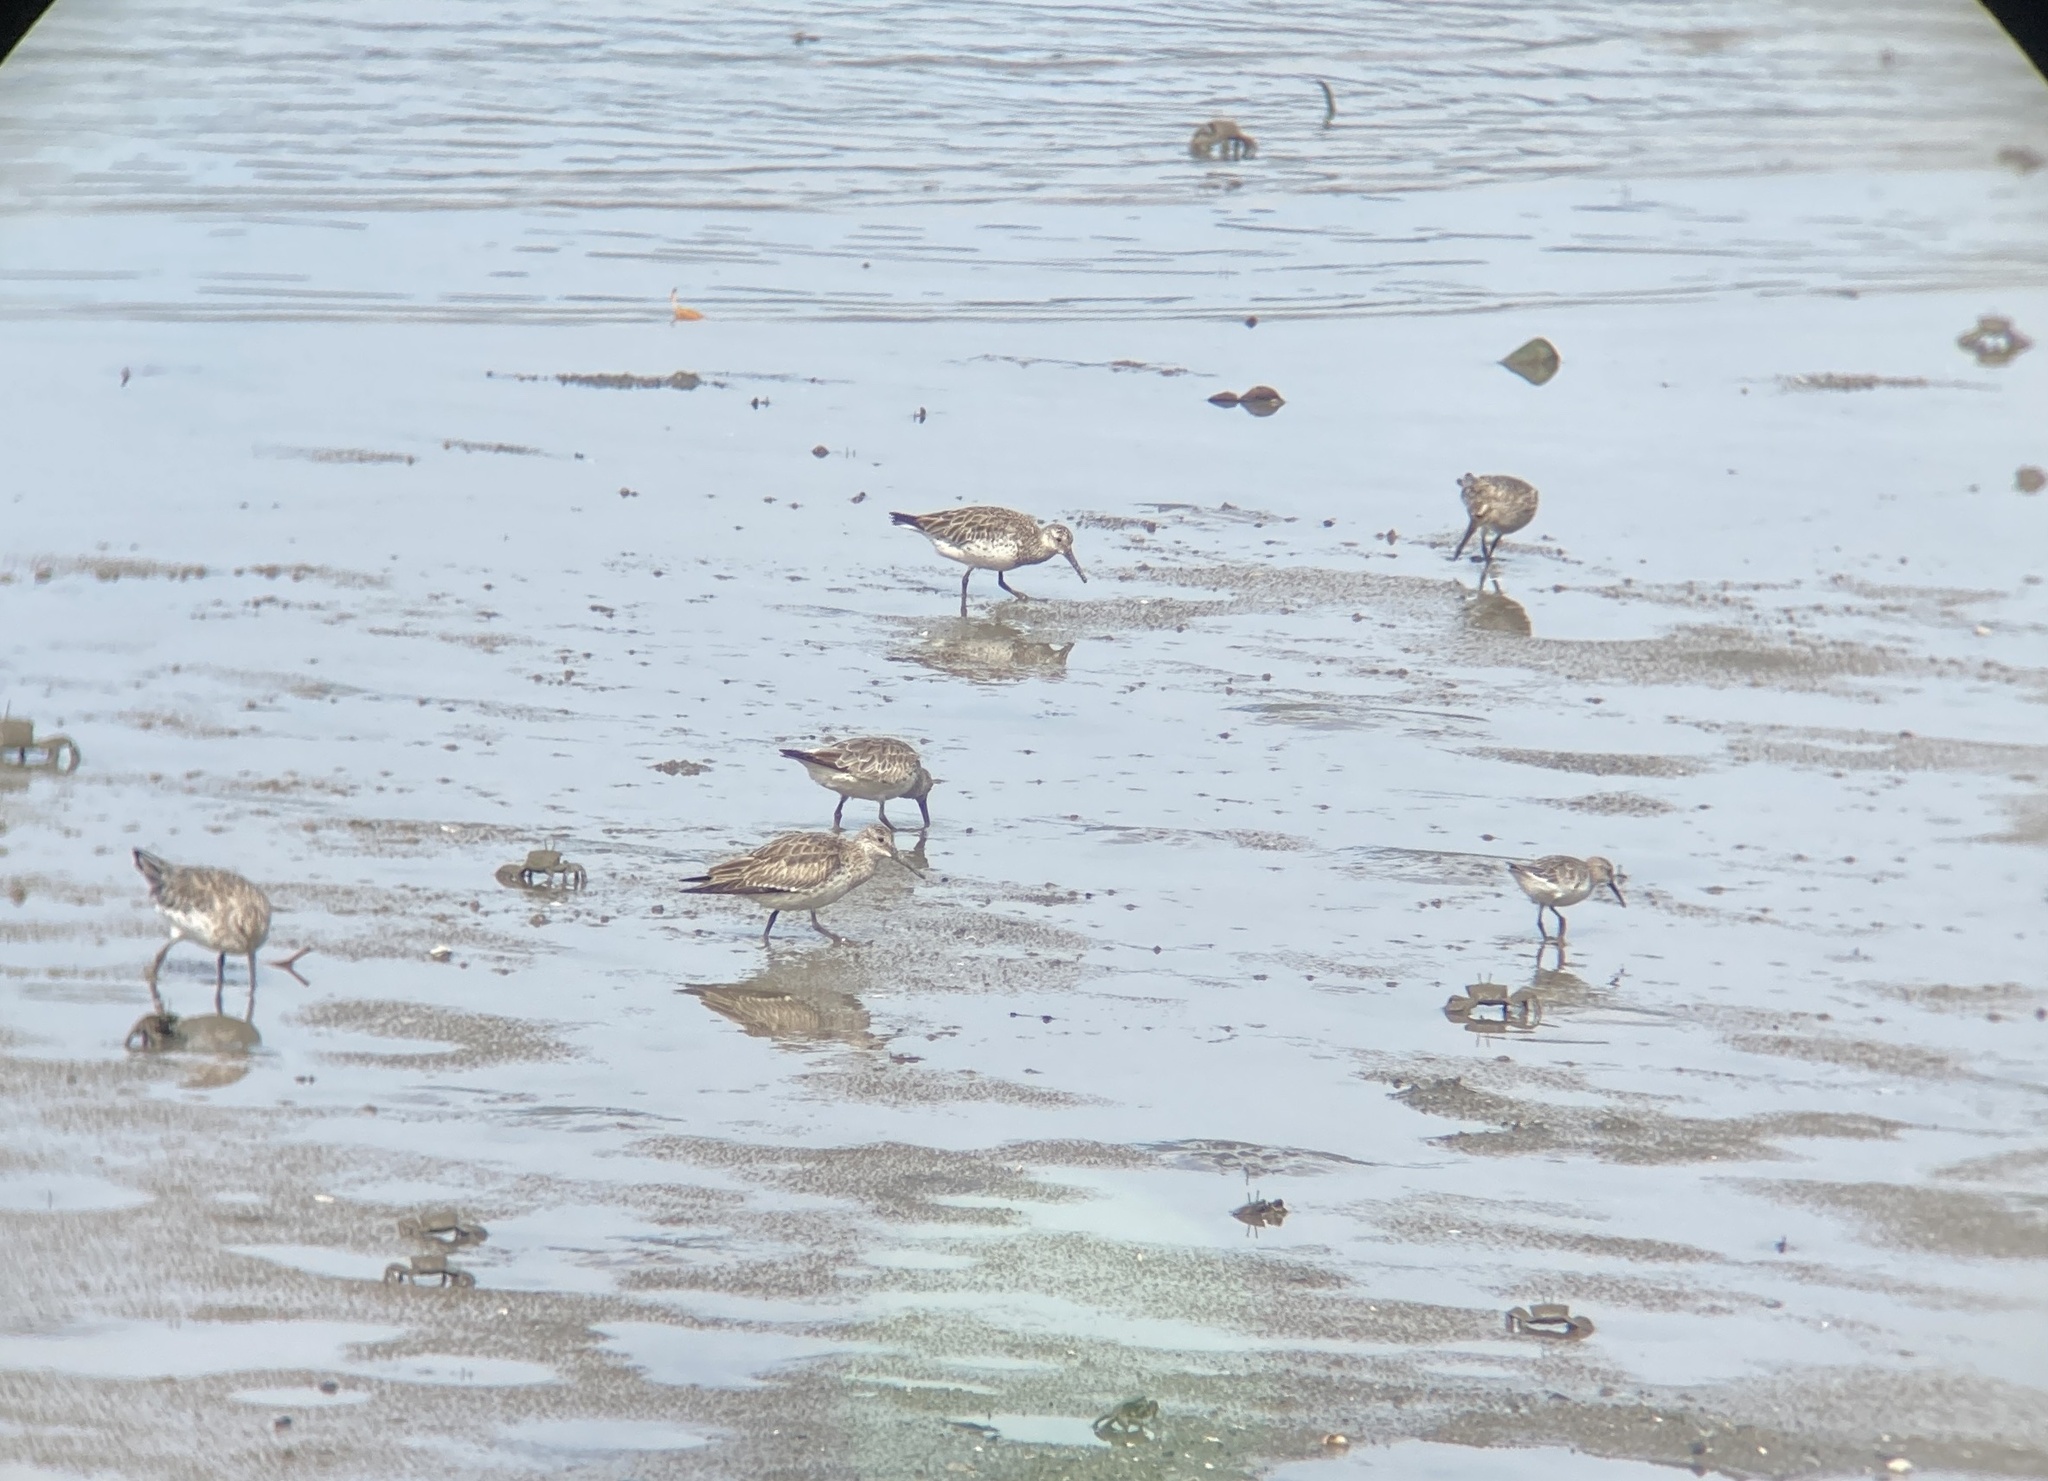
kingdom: Animalia
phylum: Chordata
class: Aves
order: Charadriiformes
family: Scolopacidae
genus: Calidris
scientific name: Calidris tenuirostris
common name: Great knot
